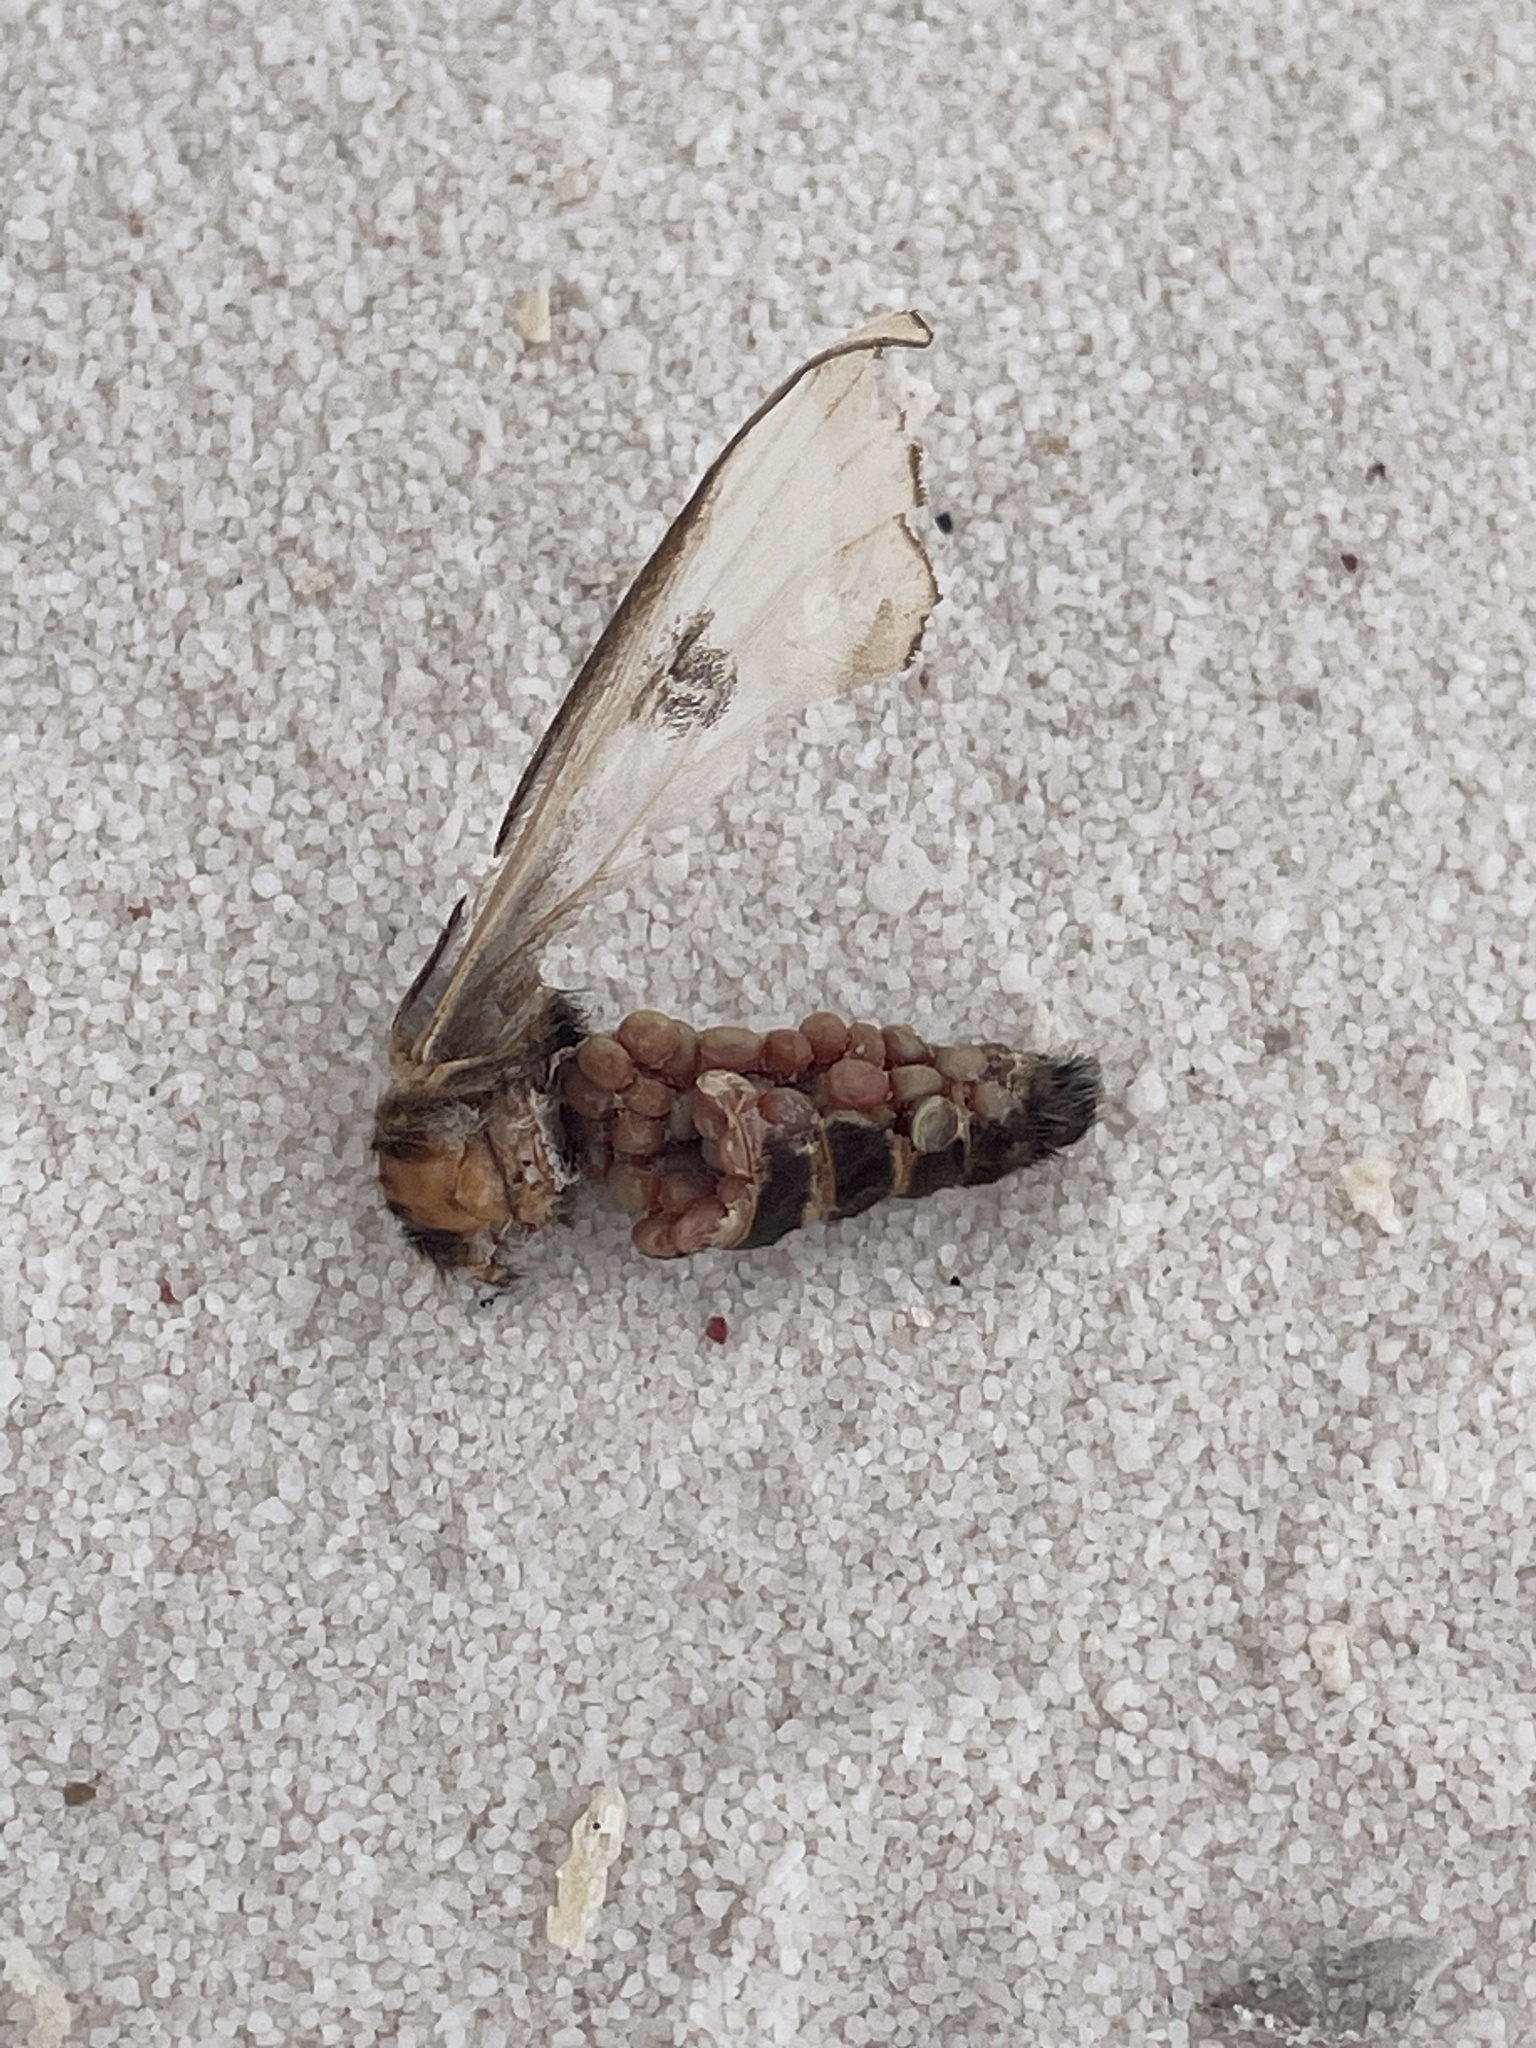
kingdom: Animalia
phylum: Arthropoda
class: Insecta
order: Lepidoptera
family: Saturniidae
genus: Hemileuca
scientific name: Hemileuca nevadensis
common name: Nevada buckmoth
